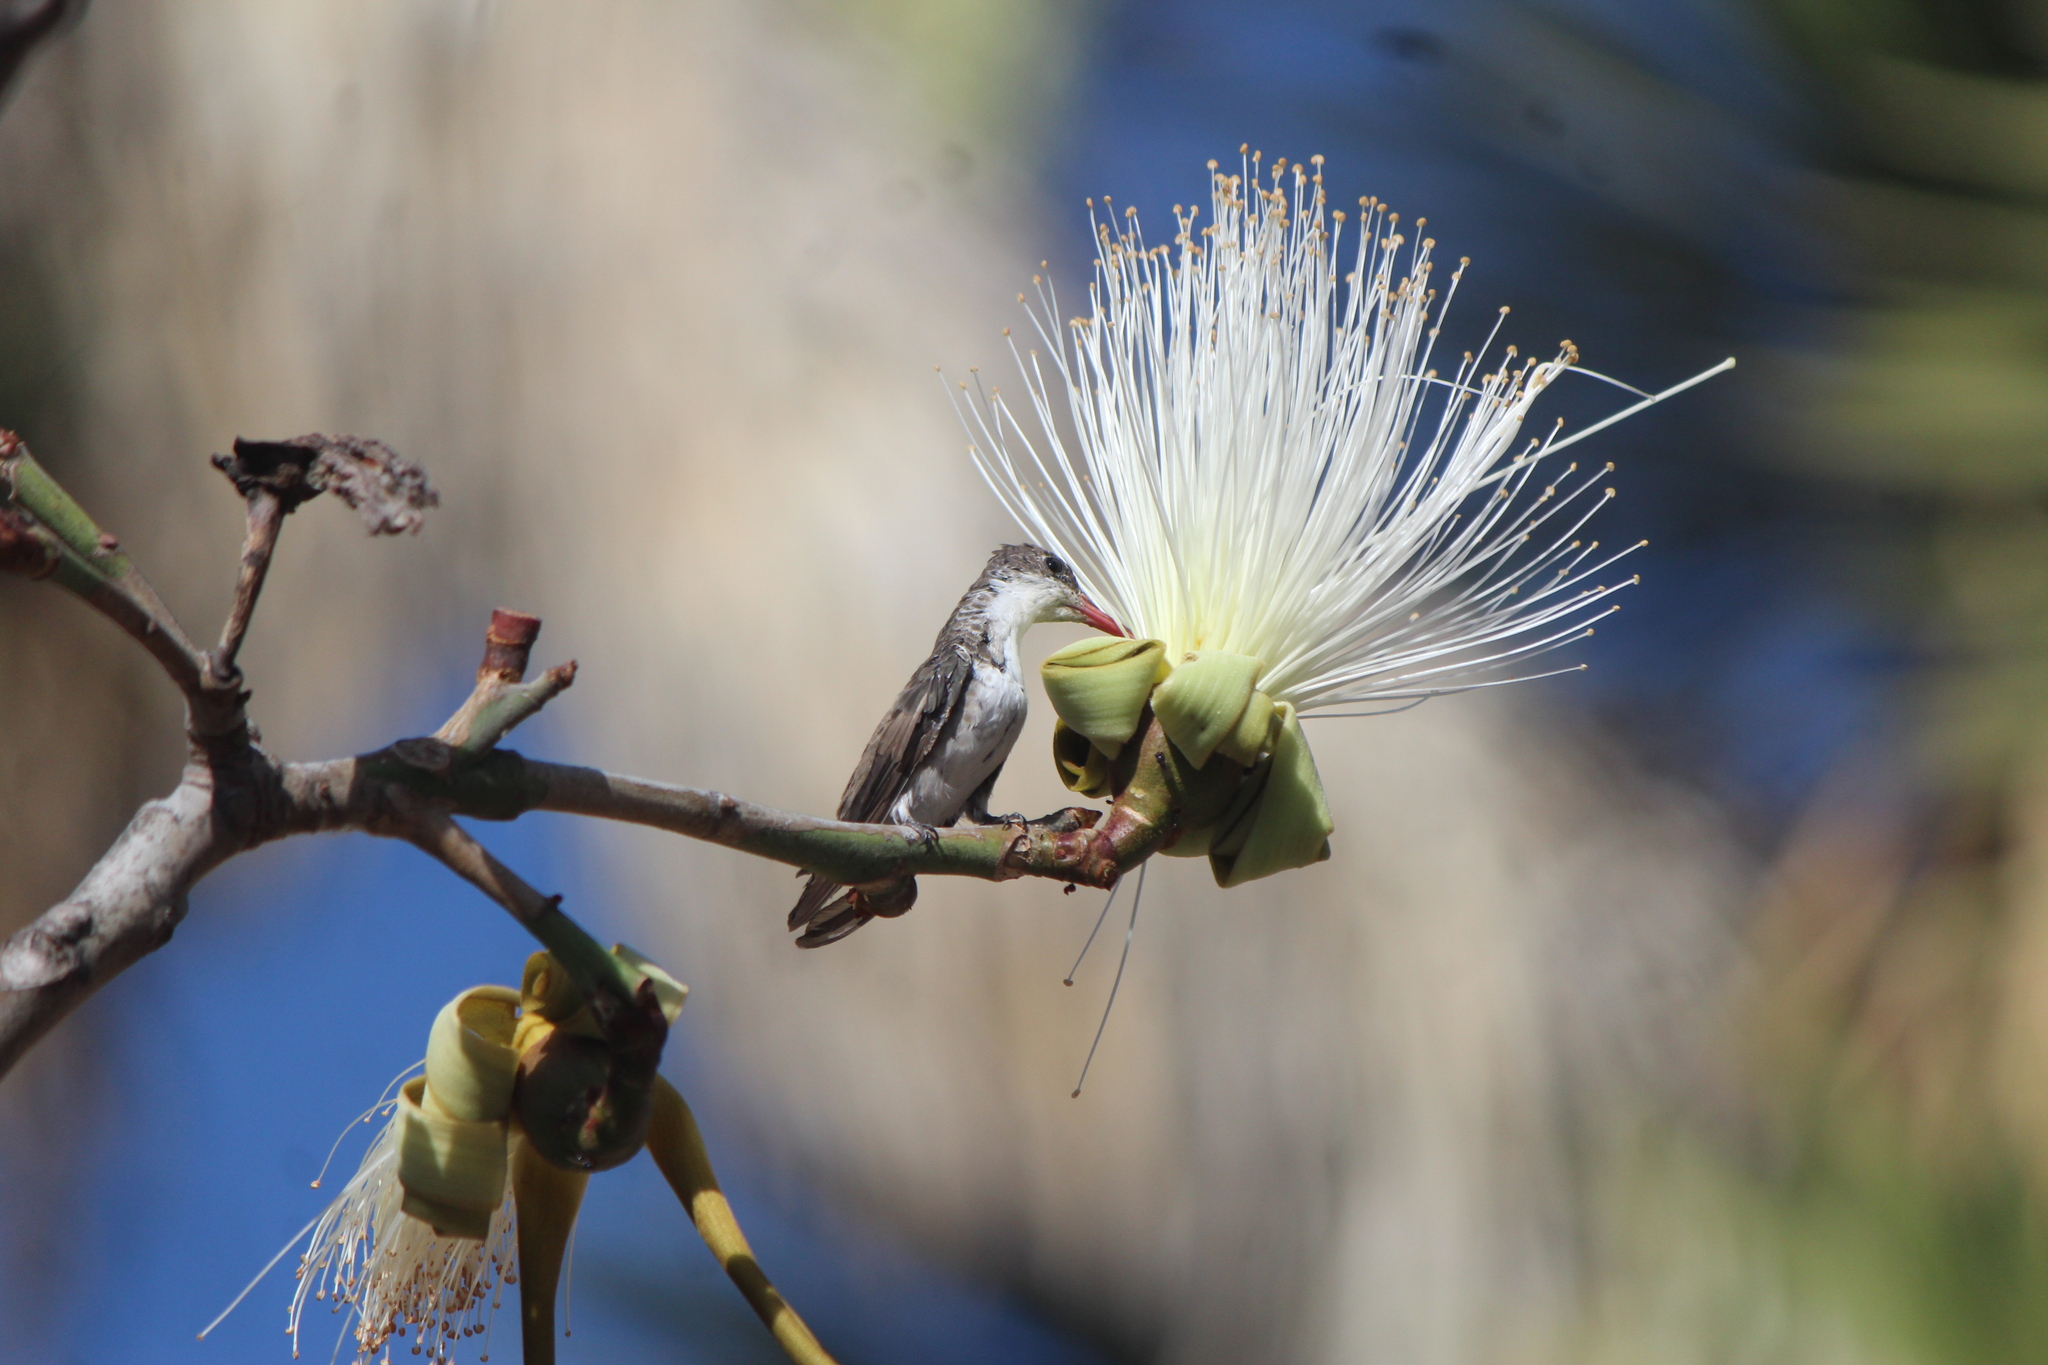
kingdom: Animalia
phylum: Chordata
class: Aves
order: Apodiformes
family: Trochilidae
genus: Leucolia
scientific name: Leucolia violiceps
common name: Violet-crowned hummingbird
